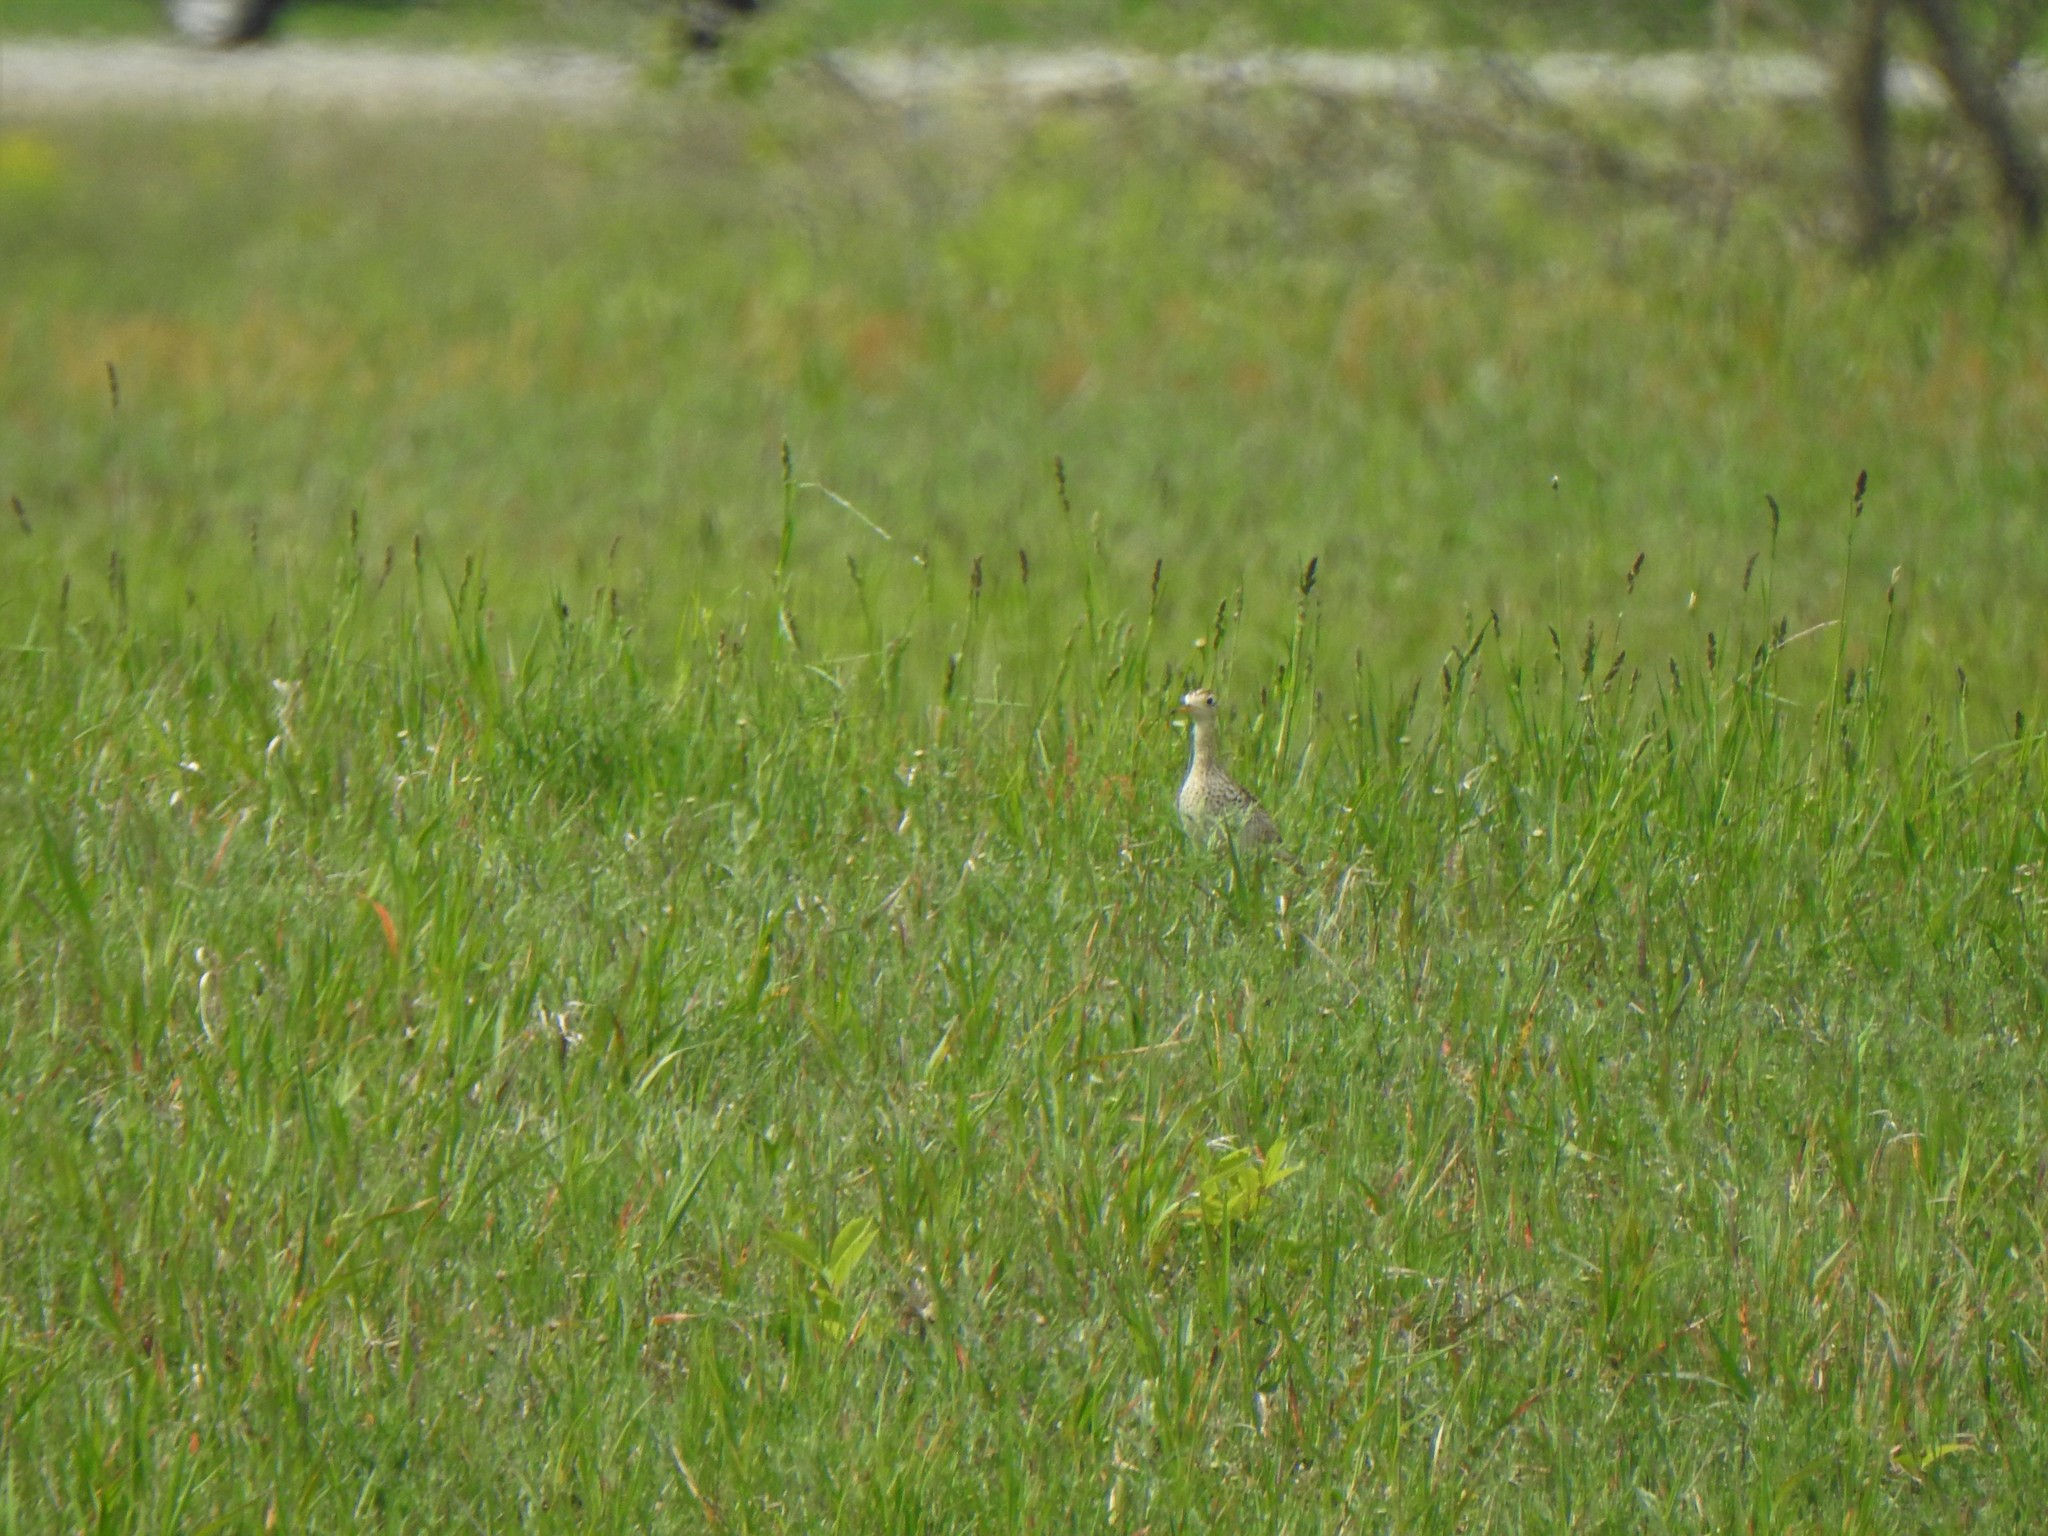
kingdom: Animalia
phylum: Chordata
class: Aves
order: Charadriiformes
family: Scolopacidae
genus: Bartramia
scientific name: Bartramia longicauda
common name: Upland sandpiper
